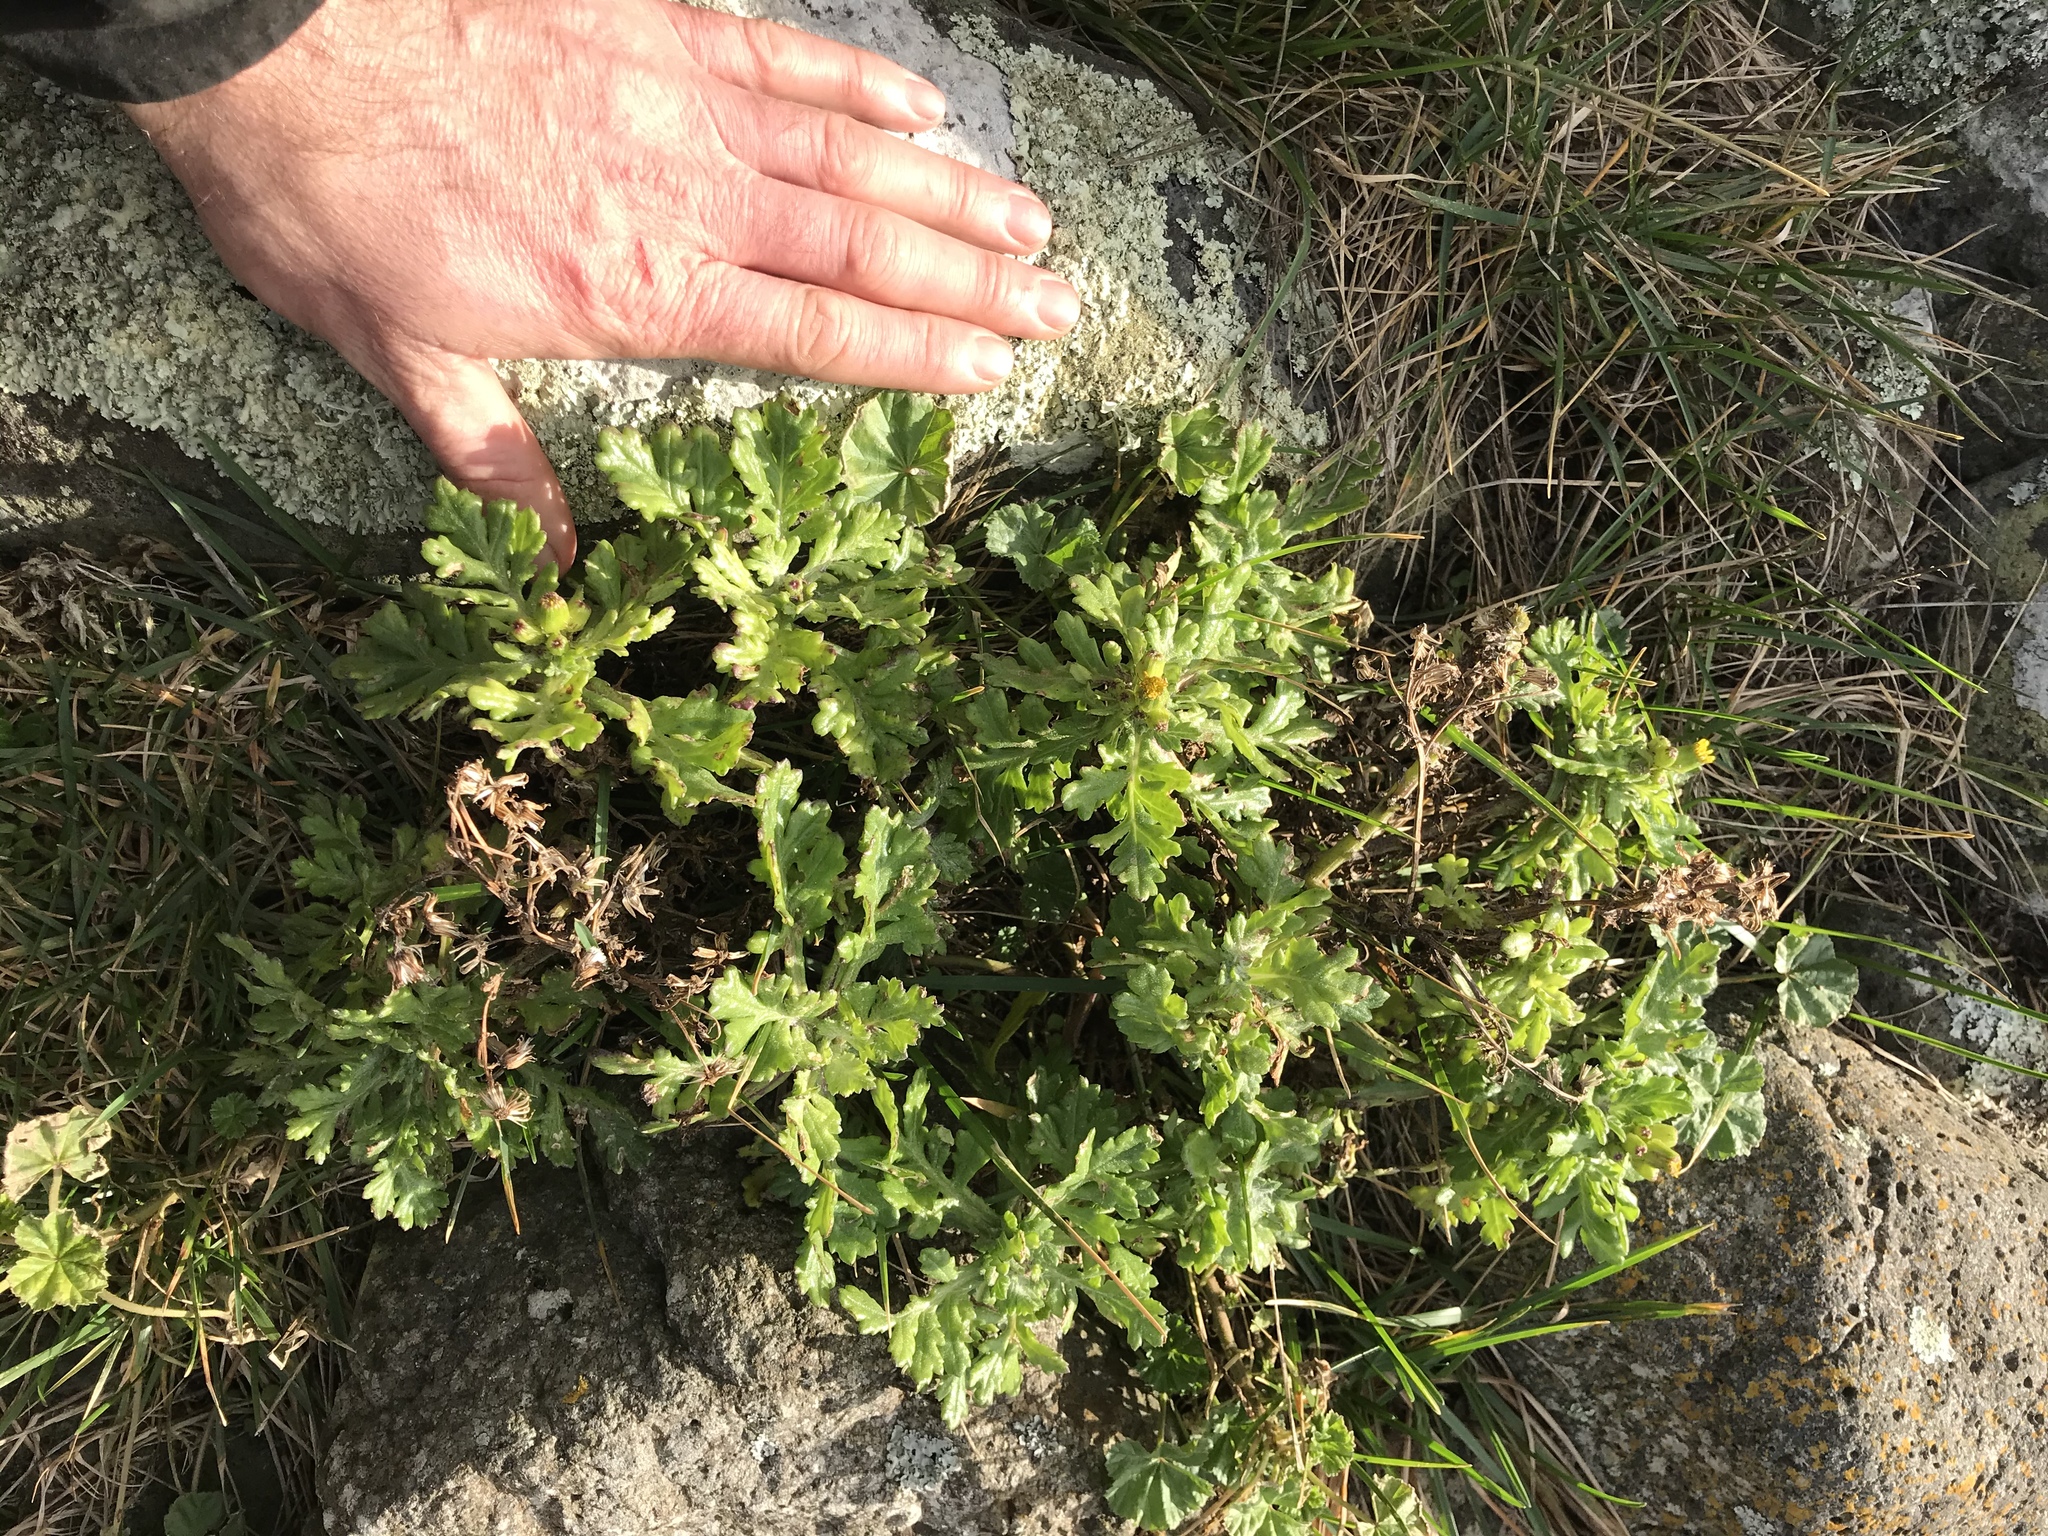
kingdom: Plantae
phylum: Tracheophyta
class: Magnoliopsida
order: Asterales
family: Asteraceae
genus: Senecio
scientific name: Senecio radiolatus
